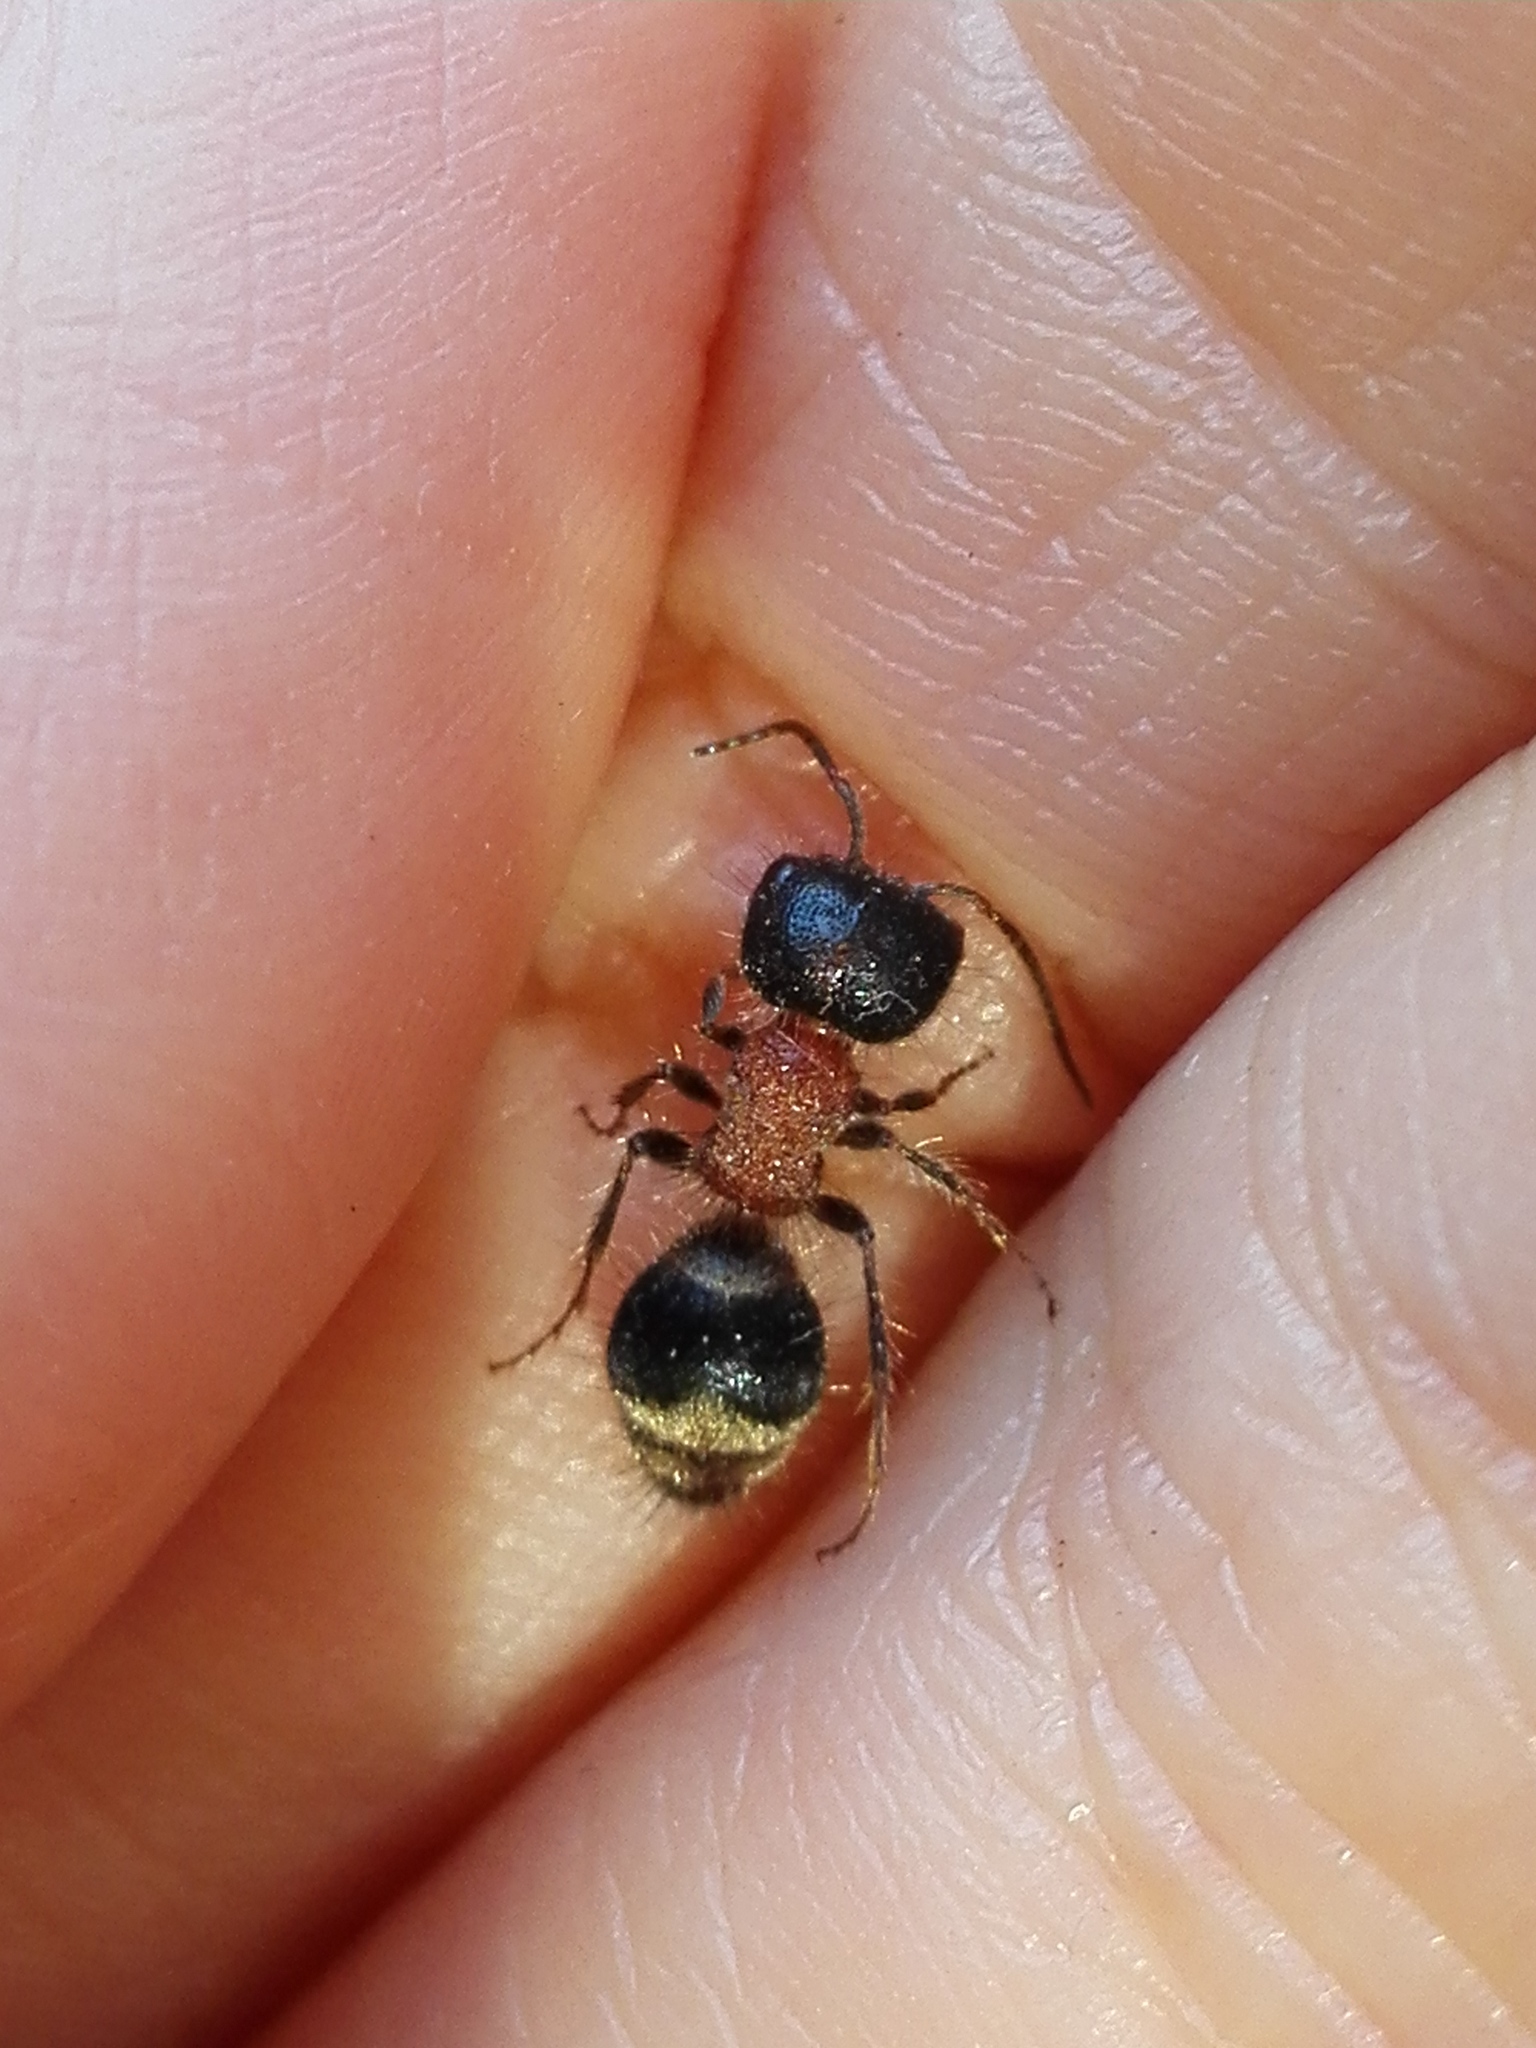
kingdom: Animalia
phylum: Arthropoda
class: Insecta
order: Hymenoptera
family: Mutillidae
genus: Myrmilla
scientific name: Myrmilla capitata
